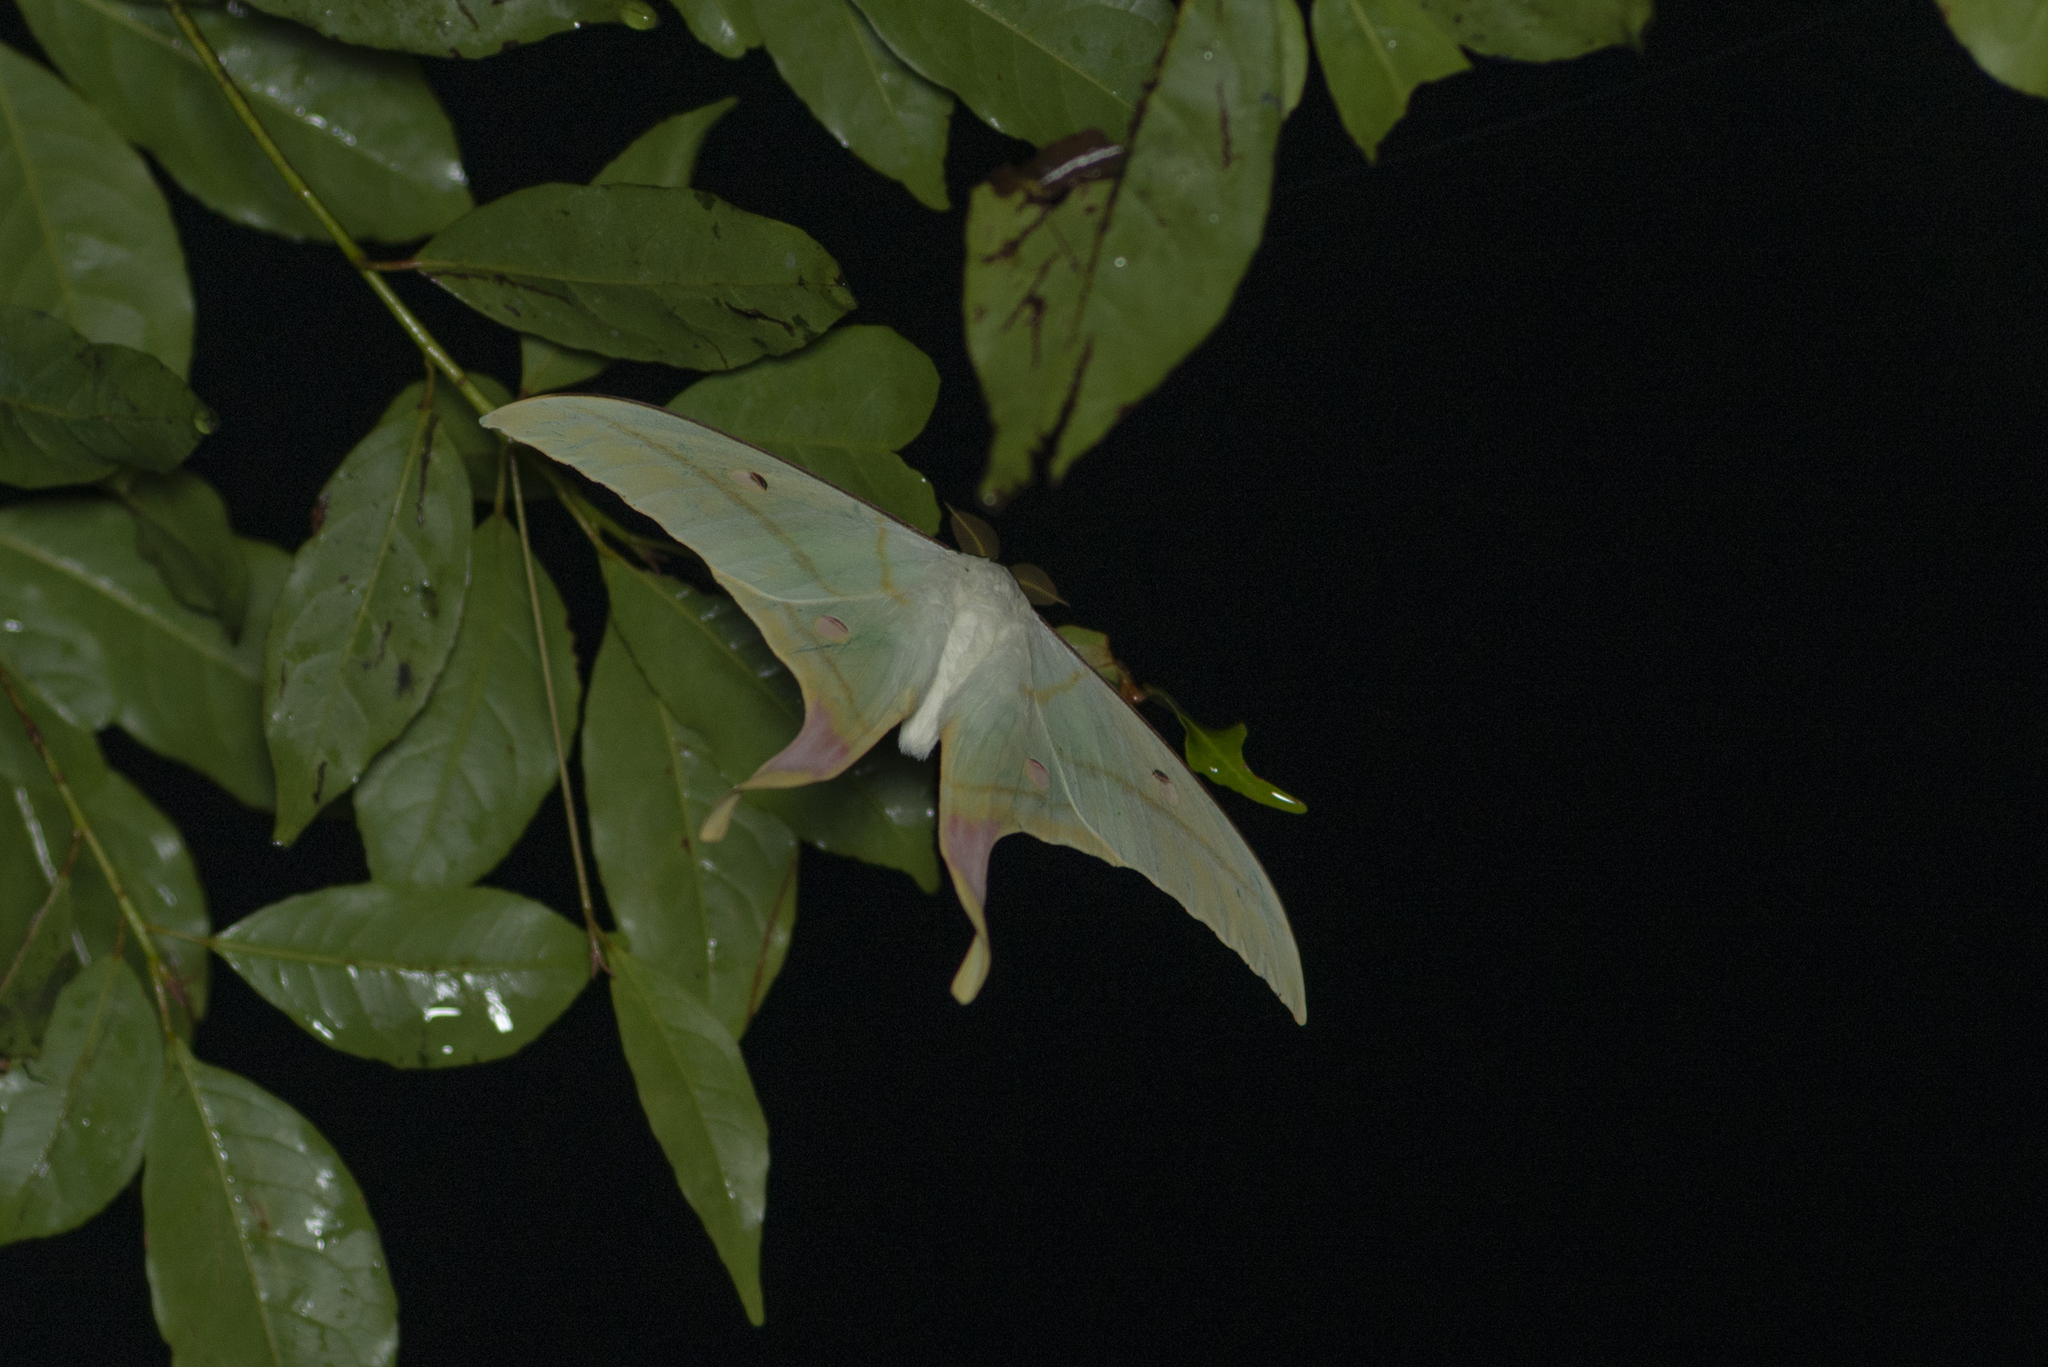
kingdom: Animalia
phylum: Arthropoda
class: Insecta
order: Lepidoptera
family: Saturniidae
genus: Actias
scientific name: Actias ningpoana
